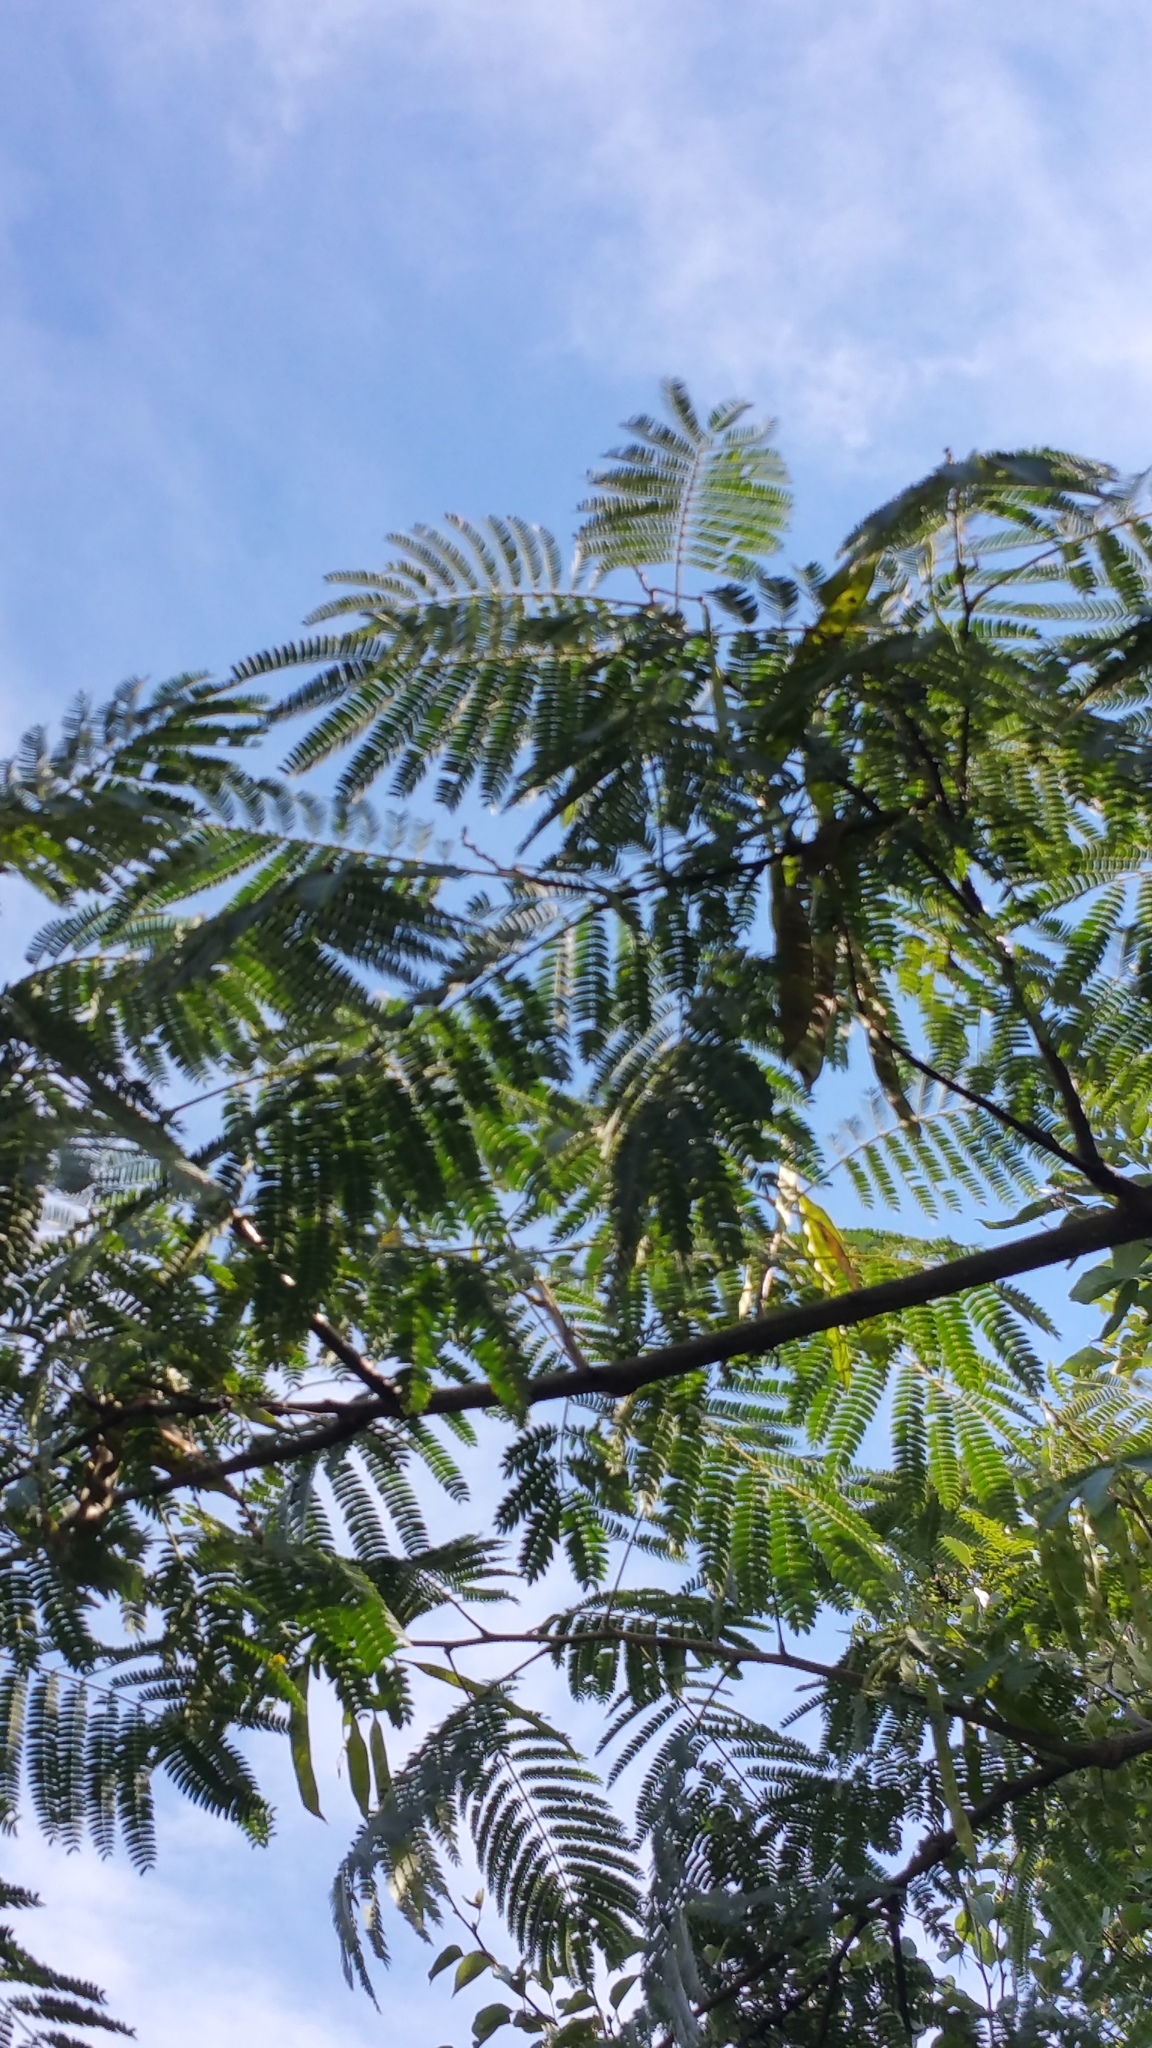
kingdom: Plantae
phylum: Tracheophyta
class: Magnoliopsida
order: Fabales
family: Fabaceae
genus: Albizia
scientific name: Albizia julibrissin
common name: Silktree
